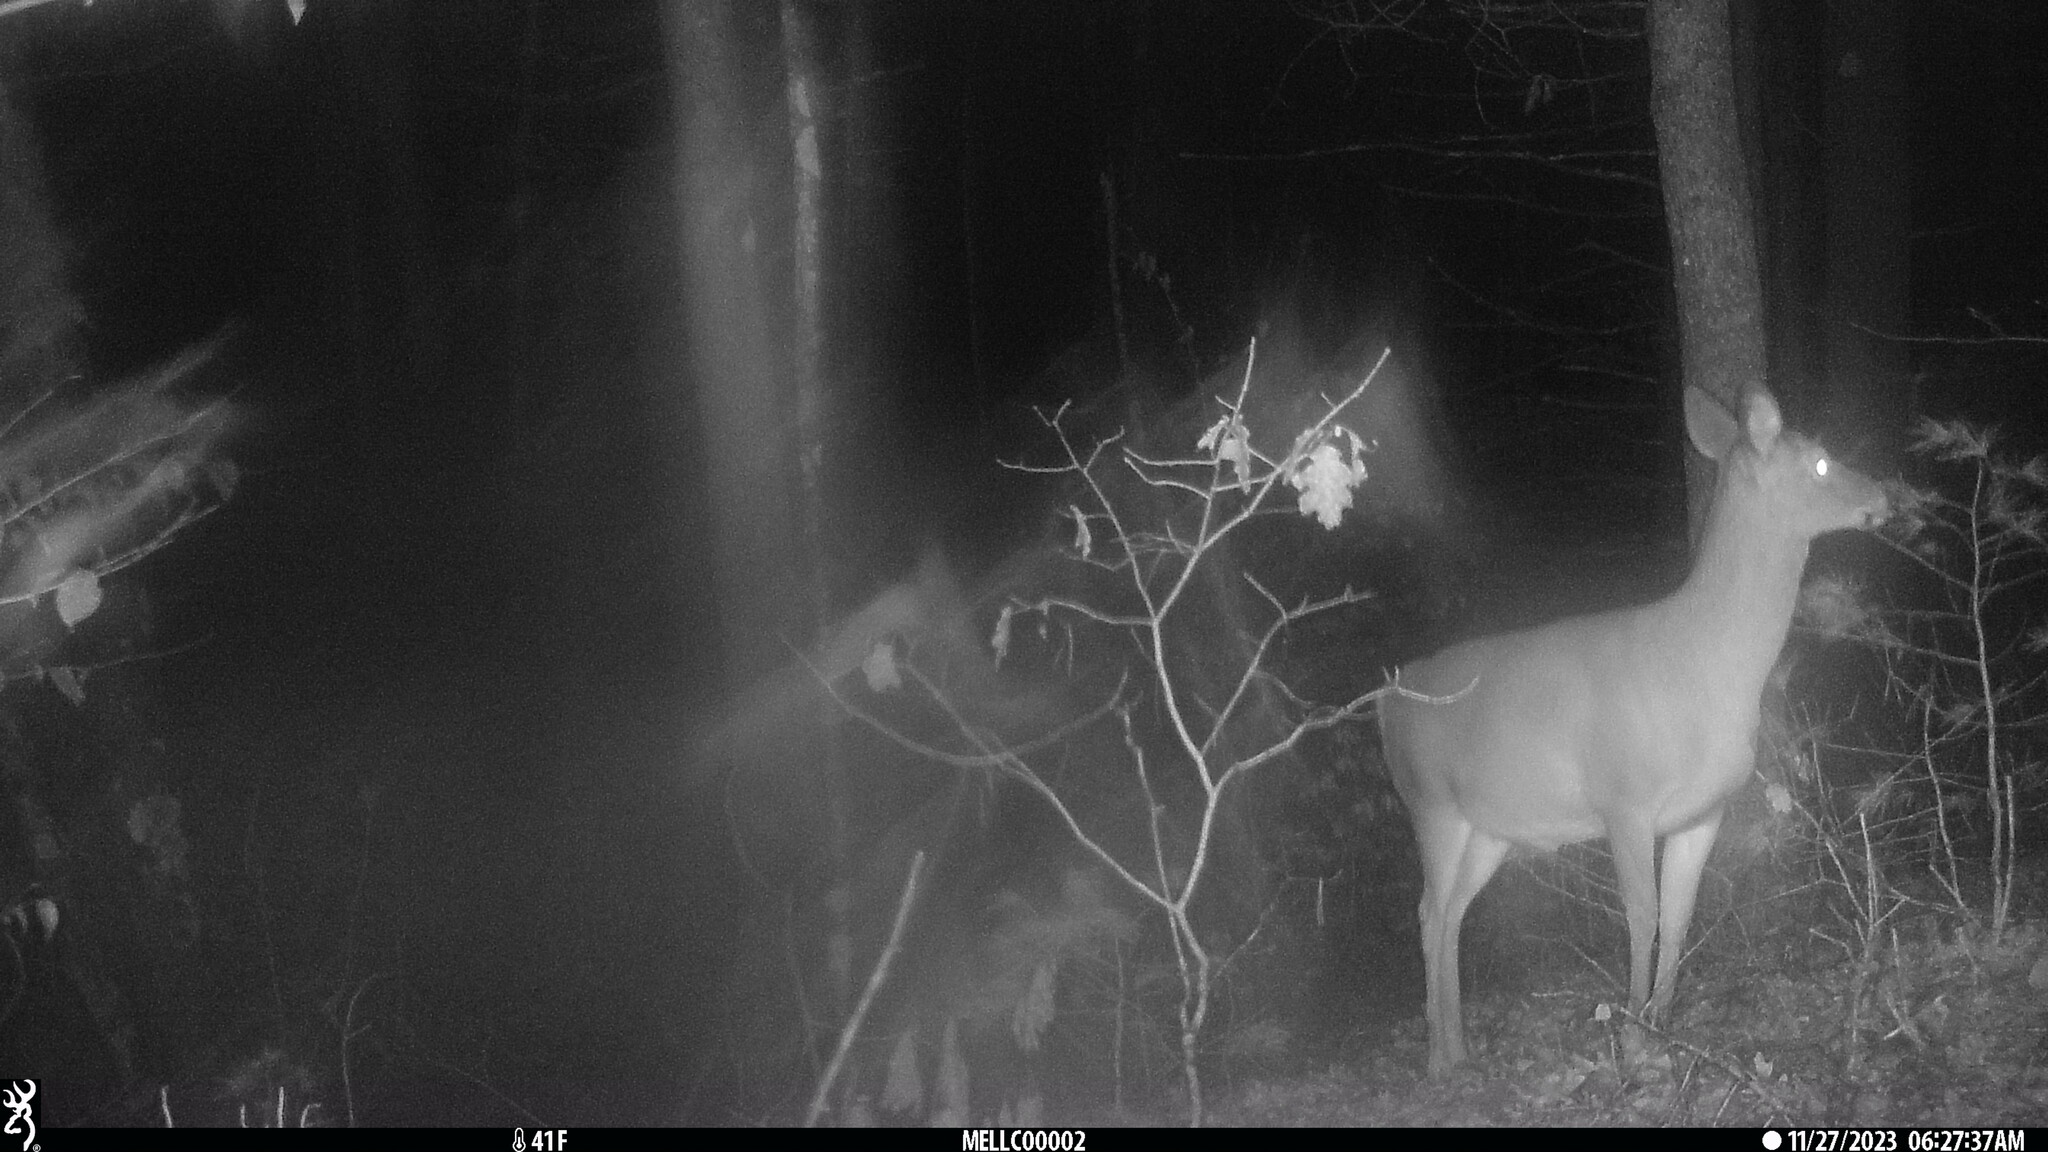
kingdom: Animalia
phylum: Chordata
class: Mammalia
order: Artiodactyla
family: Cervidae
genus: Odocoileus
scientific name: Odocoileus virginianus
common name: White-tailed deer
